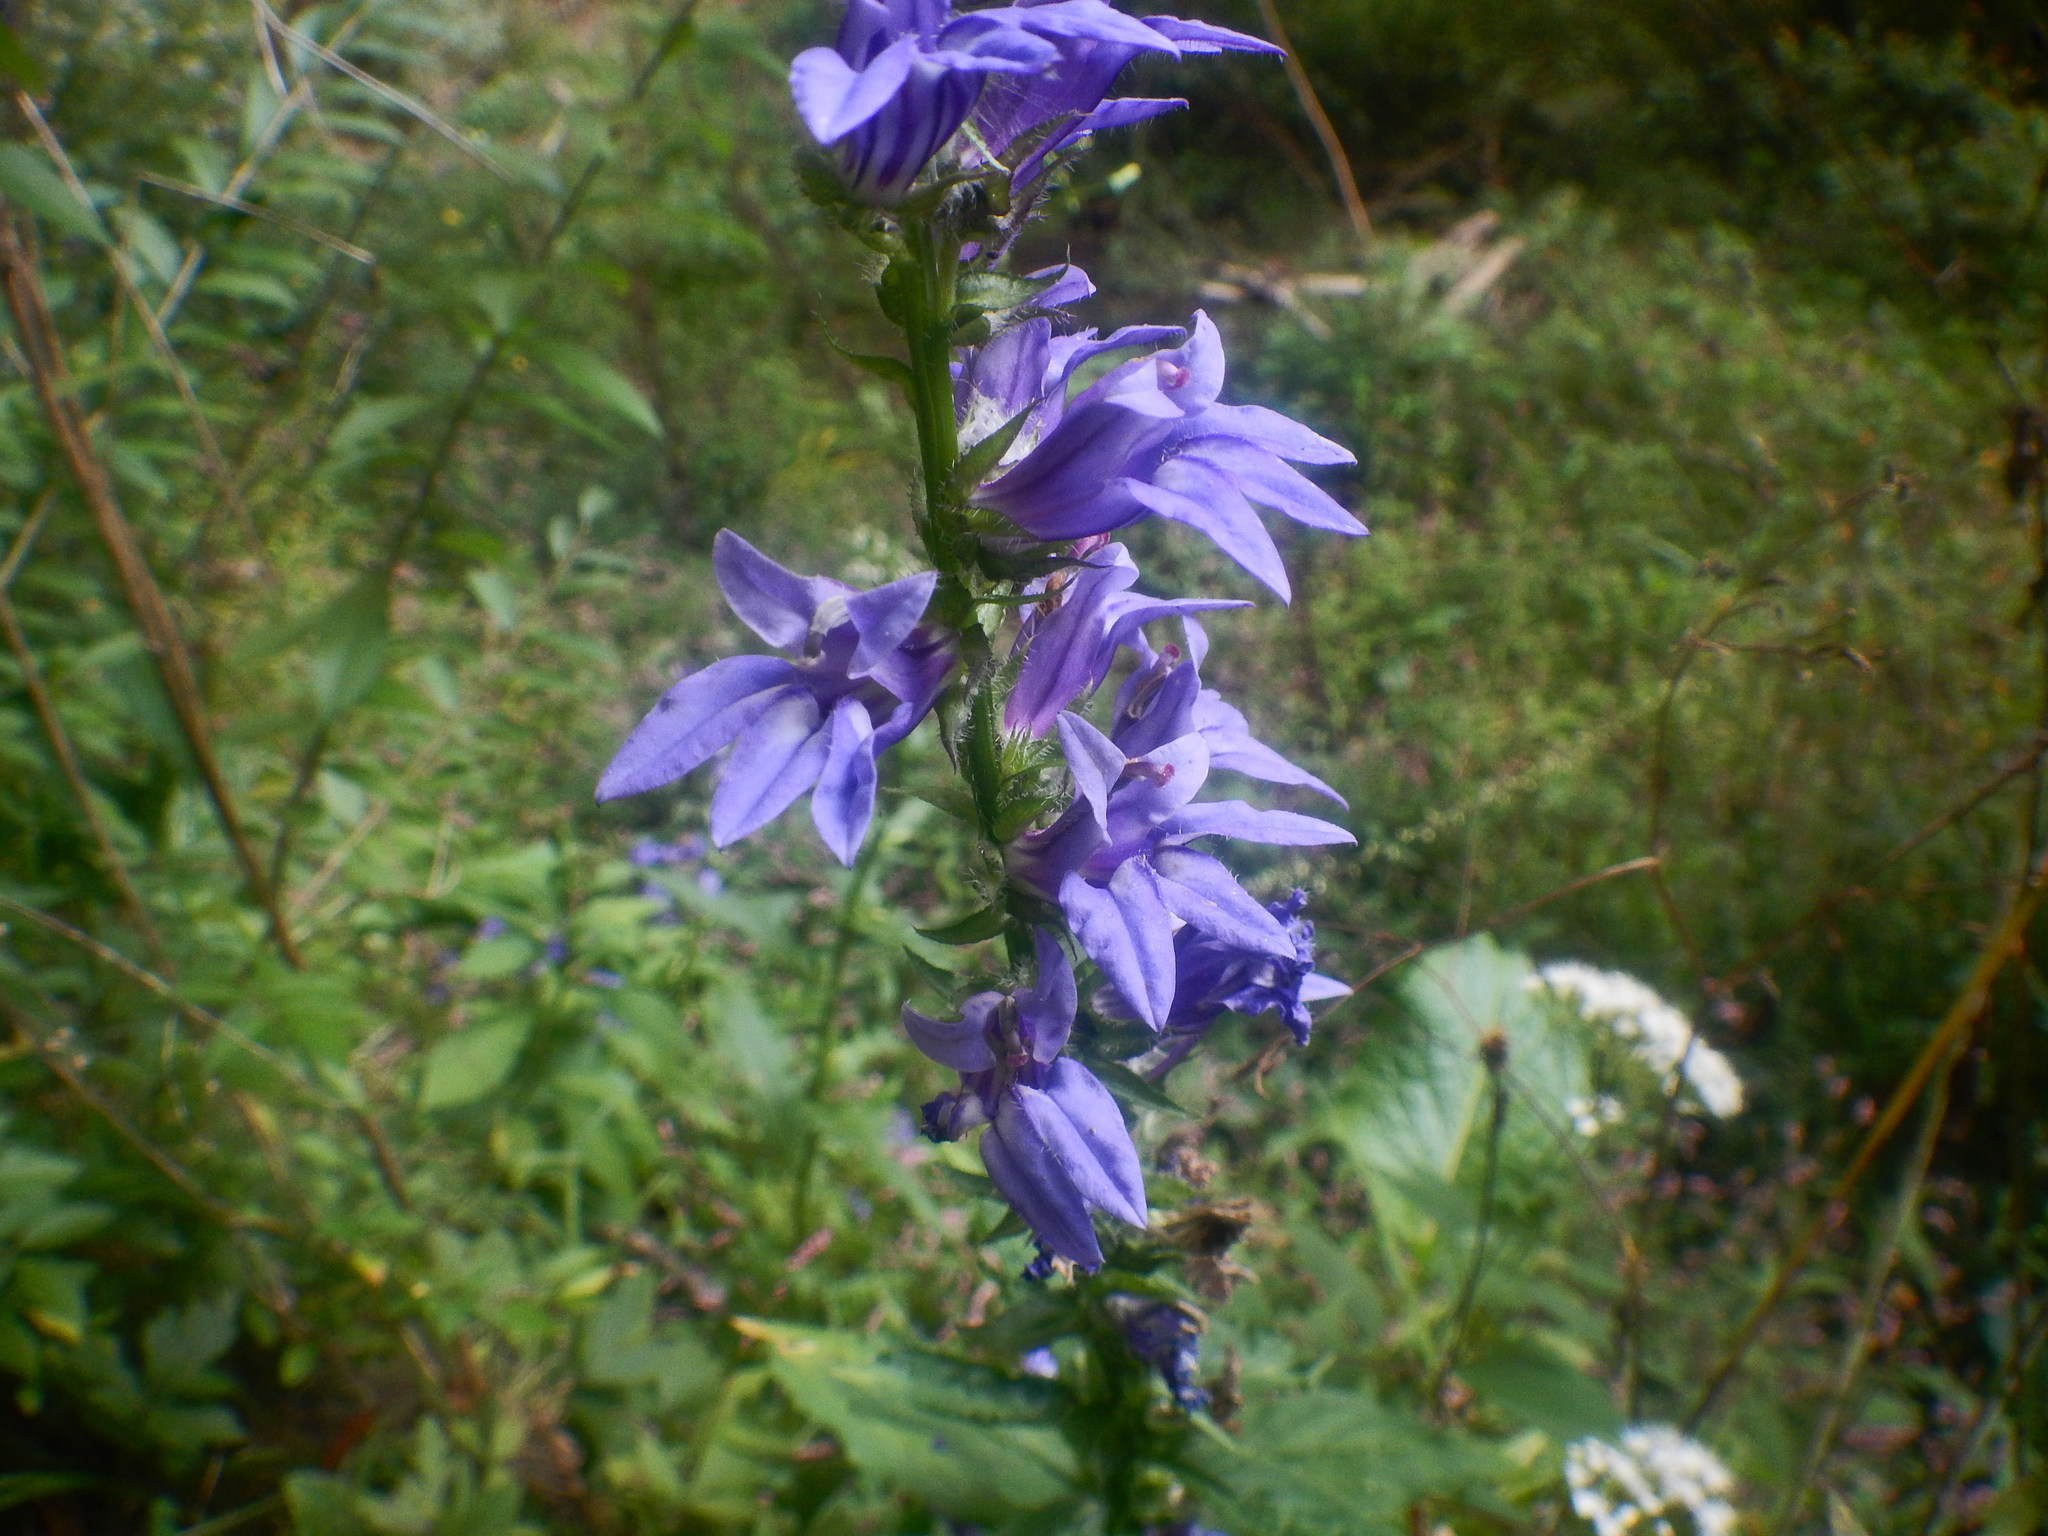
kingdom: Plantae
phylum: Tracheophyta
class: Magnoliopsida
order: Asterales
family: Campanulaceae
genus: Lobelia
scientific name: Lobelia siphilitica
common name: Great lobelia
